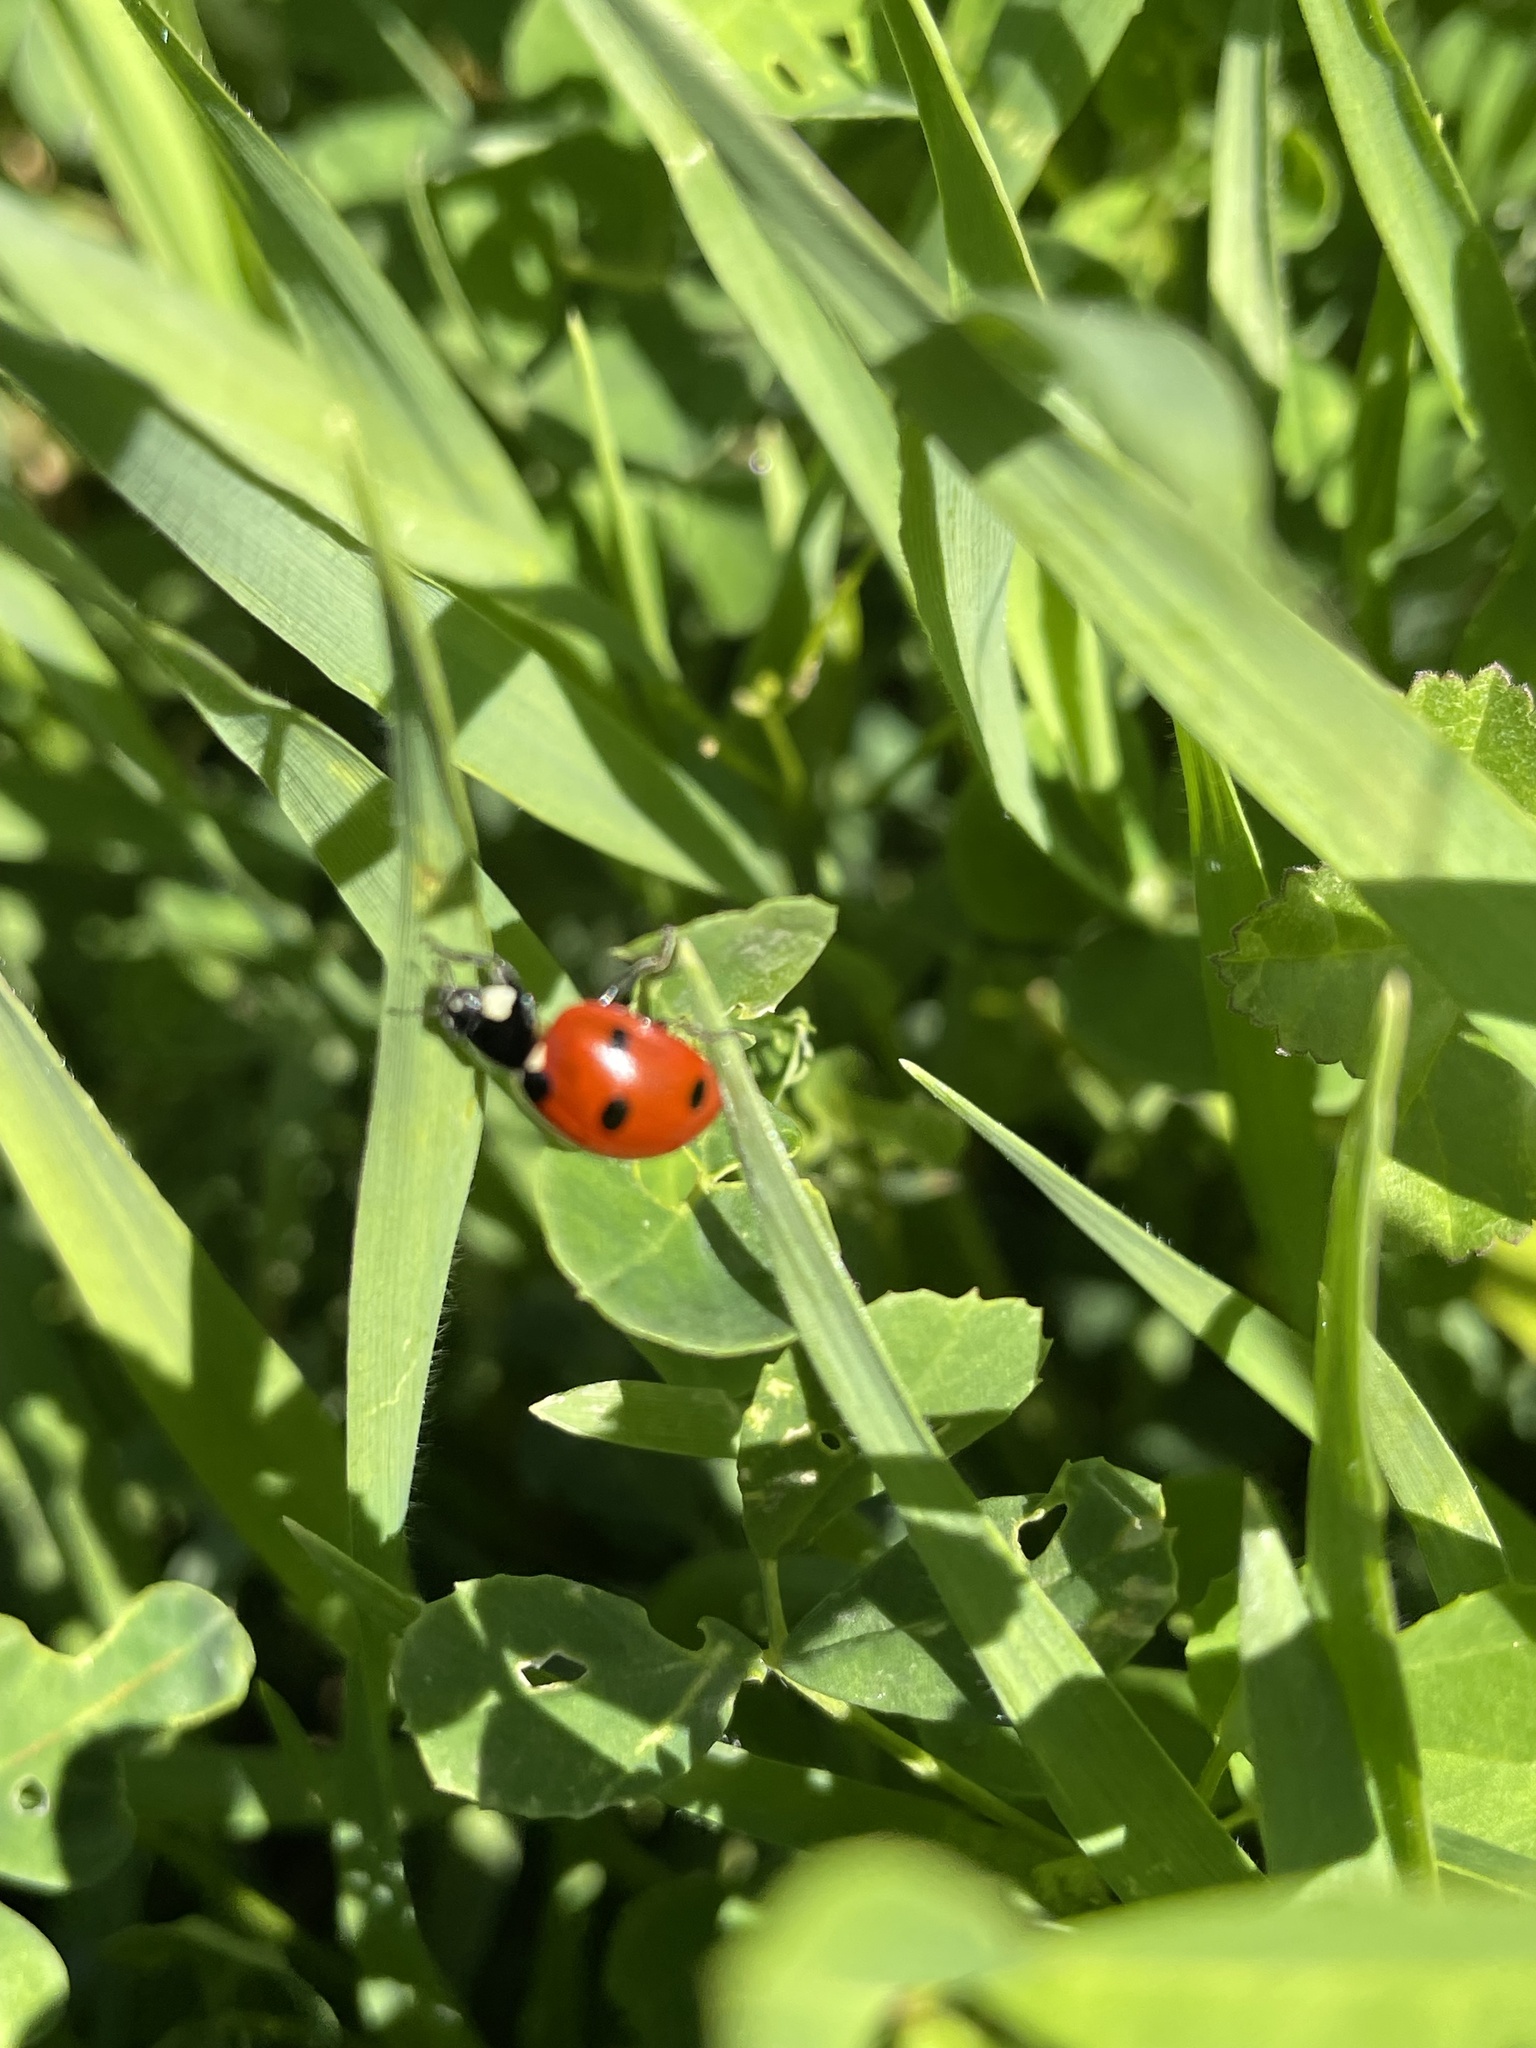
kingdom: Animalia
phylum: Arthropoda
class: Insecta
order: Coleoptera
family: Coccinellidae
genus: Coccinella
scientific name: Coccinella septempunctata
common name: Sevenspotted lady beetle
